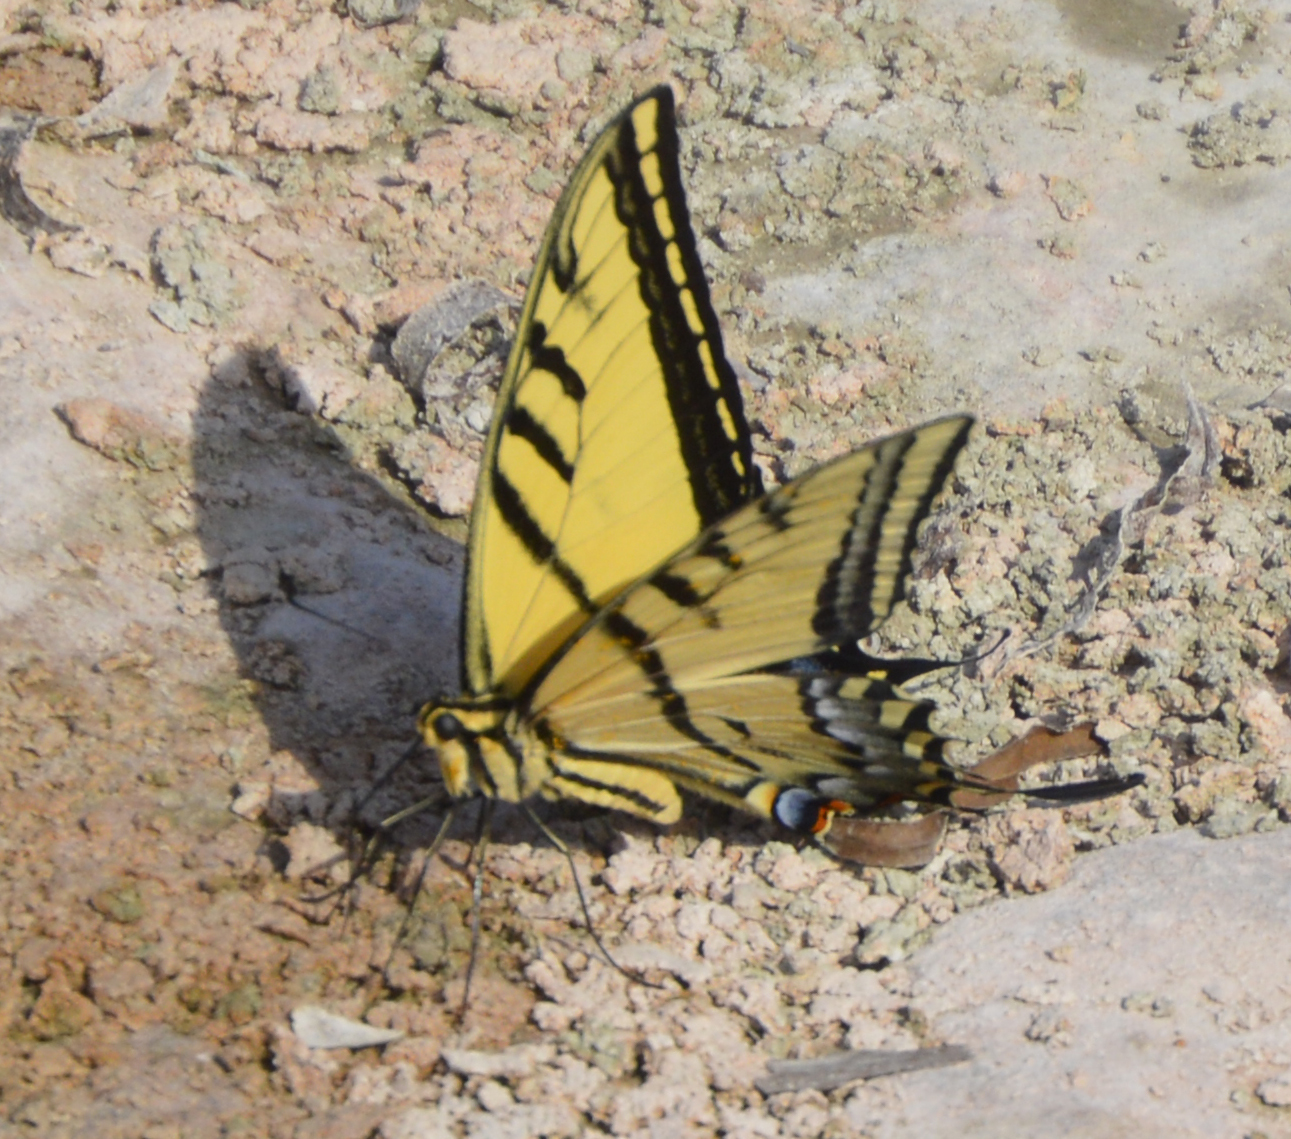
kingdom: Animalia
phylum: Arthropoda
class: Insecta
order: Lepidoptera
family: Papilionidae
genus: Papilio
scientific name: Papilio multicaudata
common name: Two-tailed tiger swallowtail
